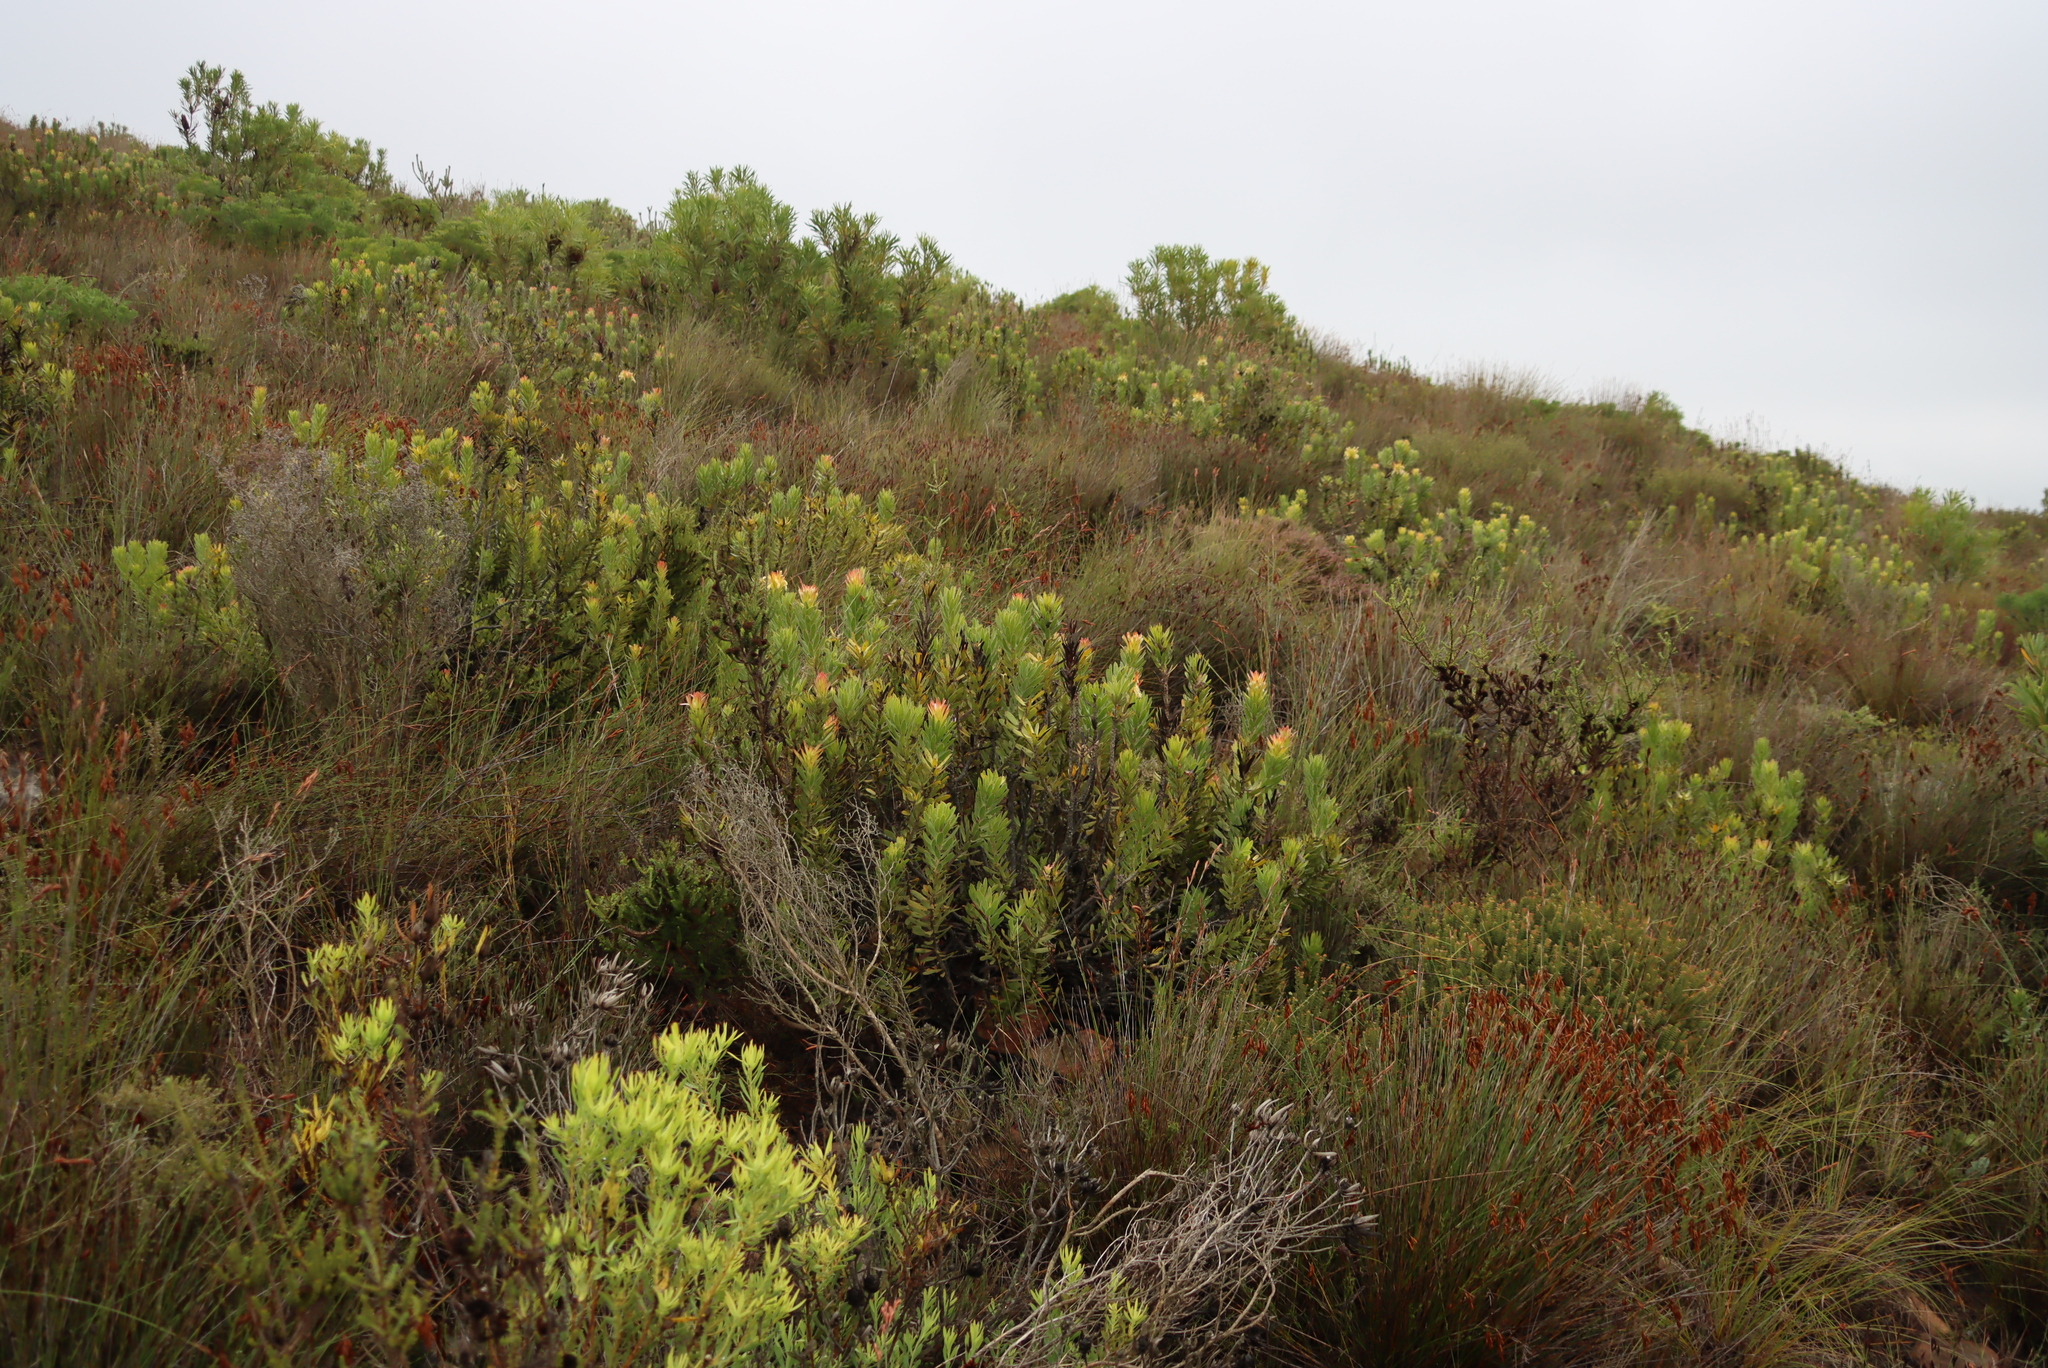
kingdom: Plantae
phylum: Tracheophyta
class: Magnoliopsida
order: Proteales
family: Proteaceae
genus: Mimetes
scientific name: Mimetes cucullatus
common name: Common pagoda
